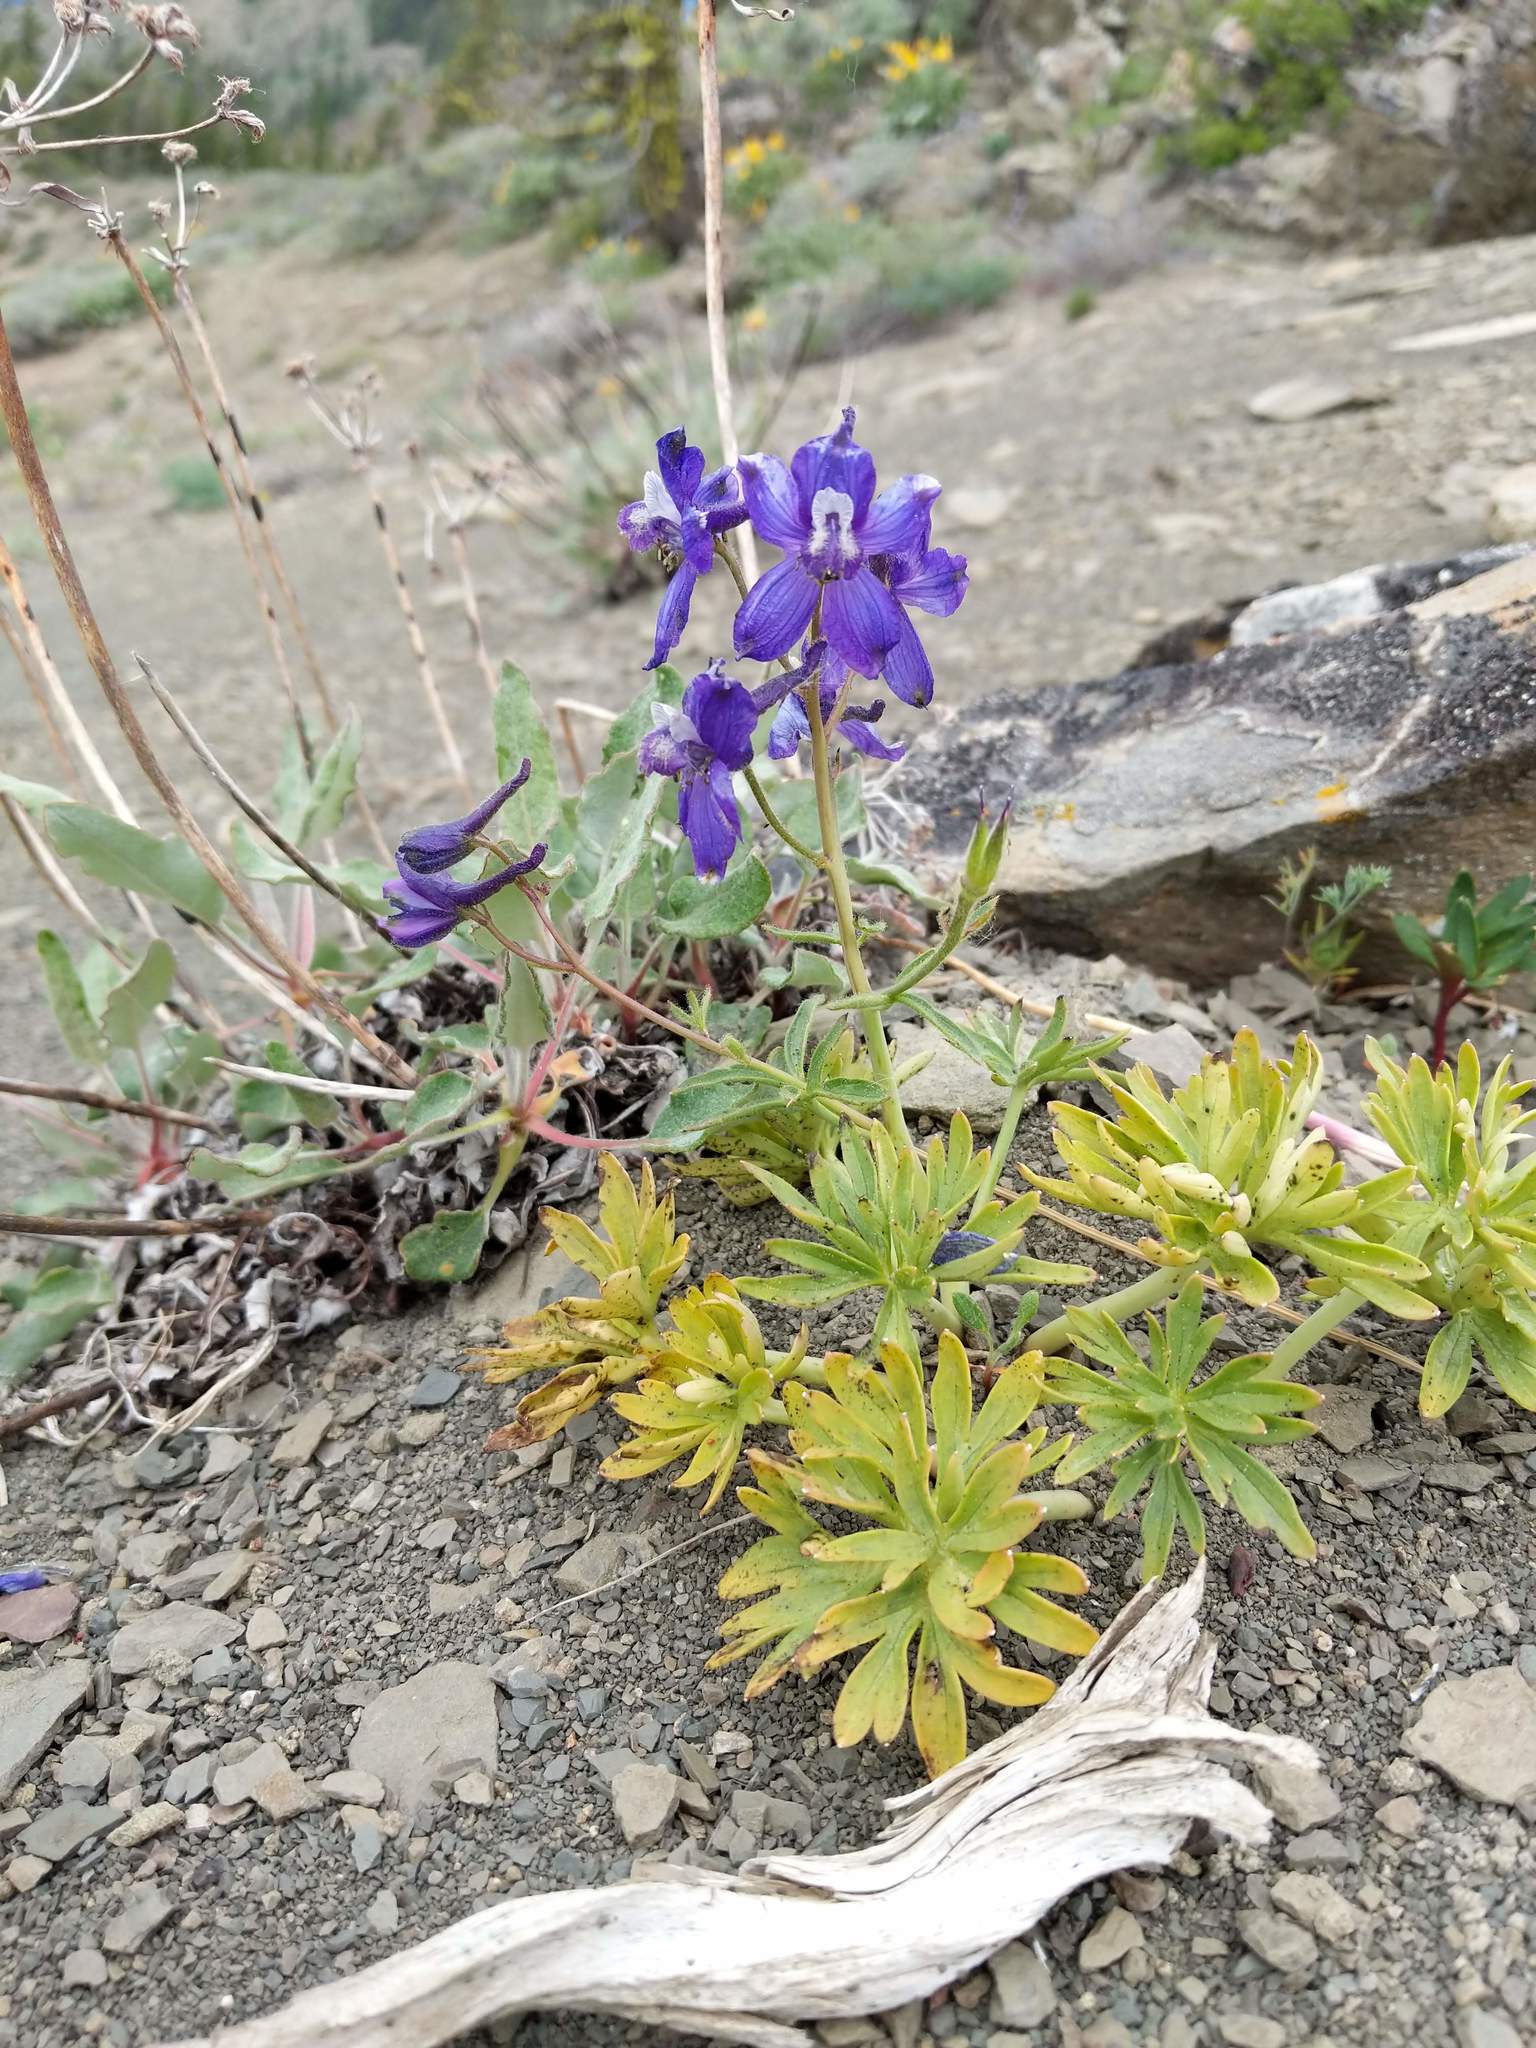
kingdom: Plantae
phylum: Tracheophyta
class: Magnoliopsida
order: Ranunculales
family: Ranunculaceae
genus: Delphinium
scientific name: Delphinium nuttallianum
